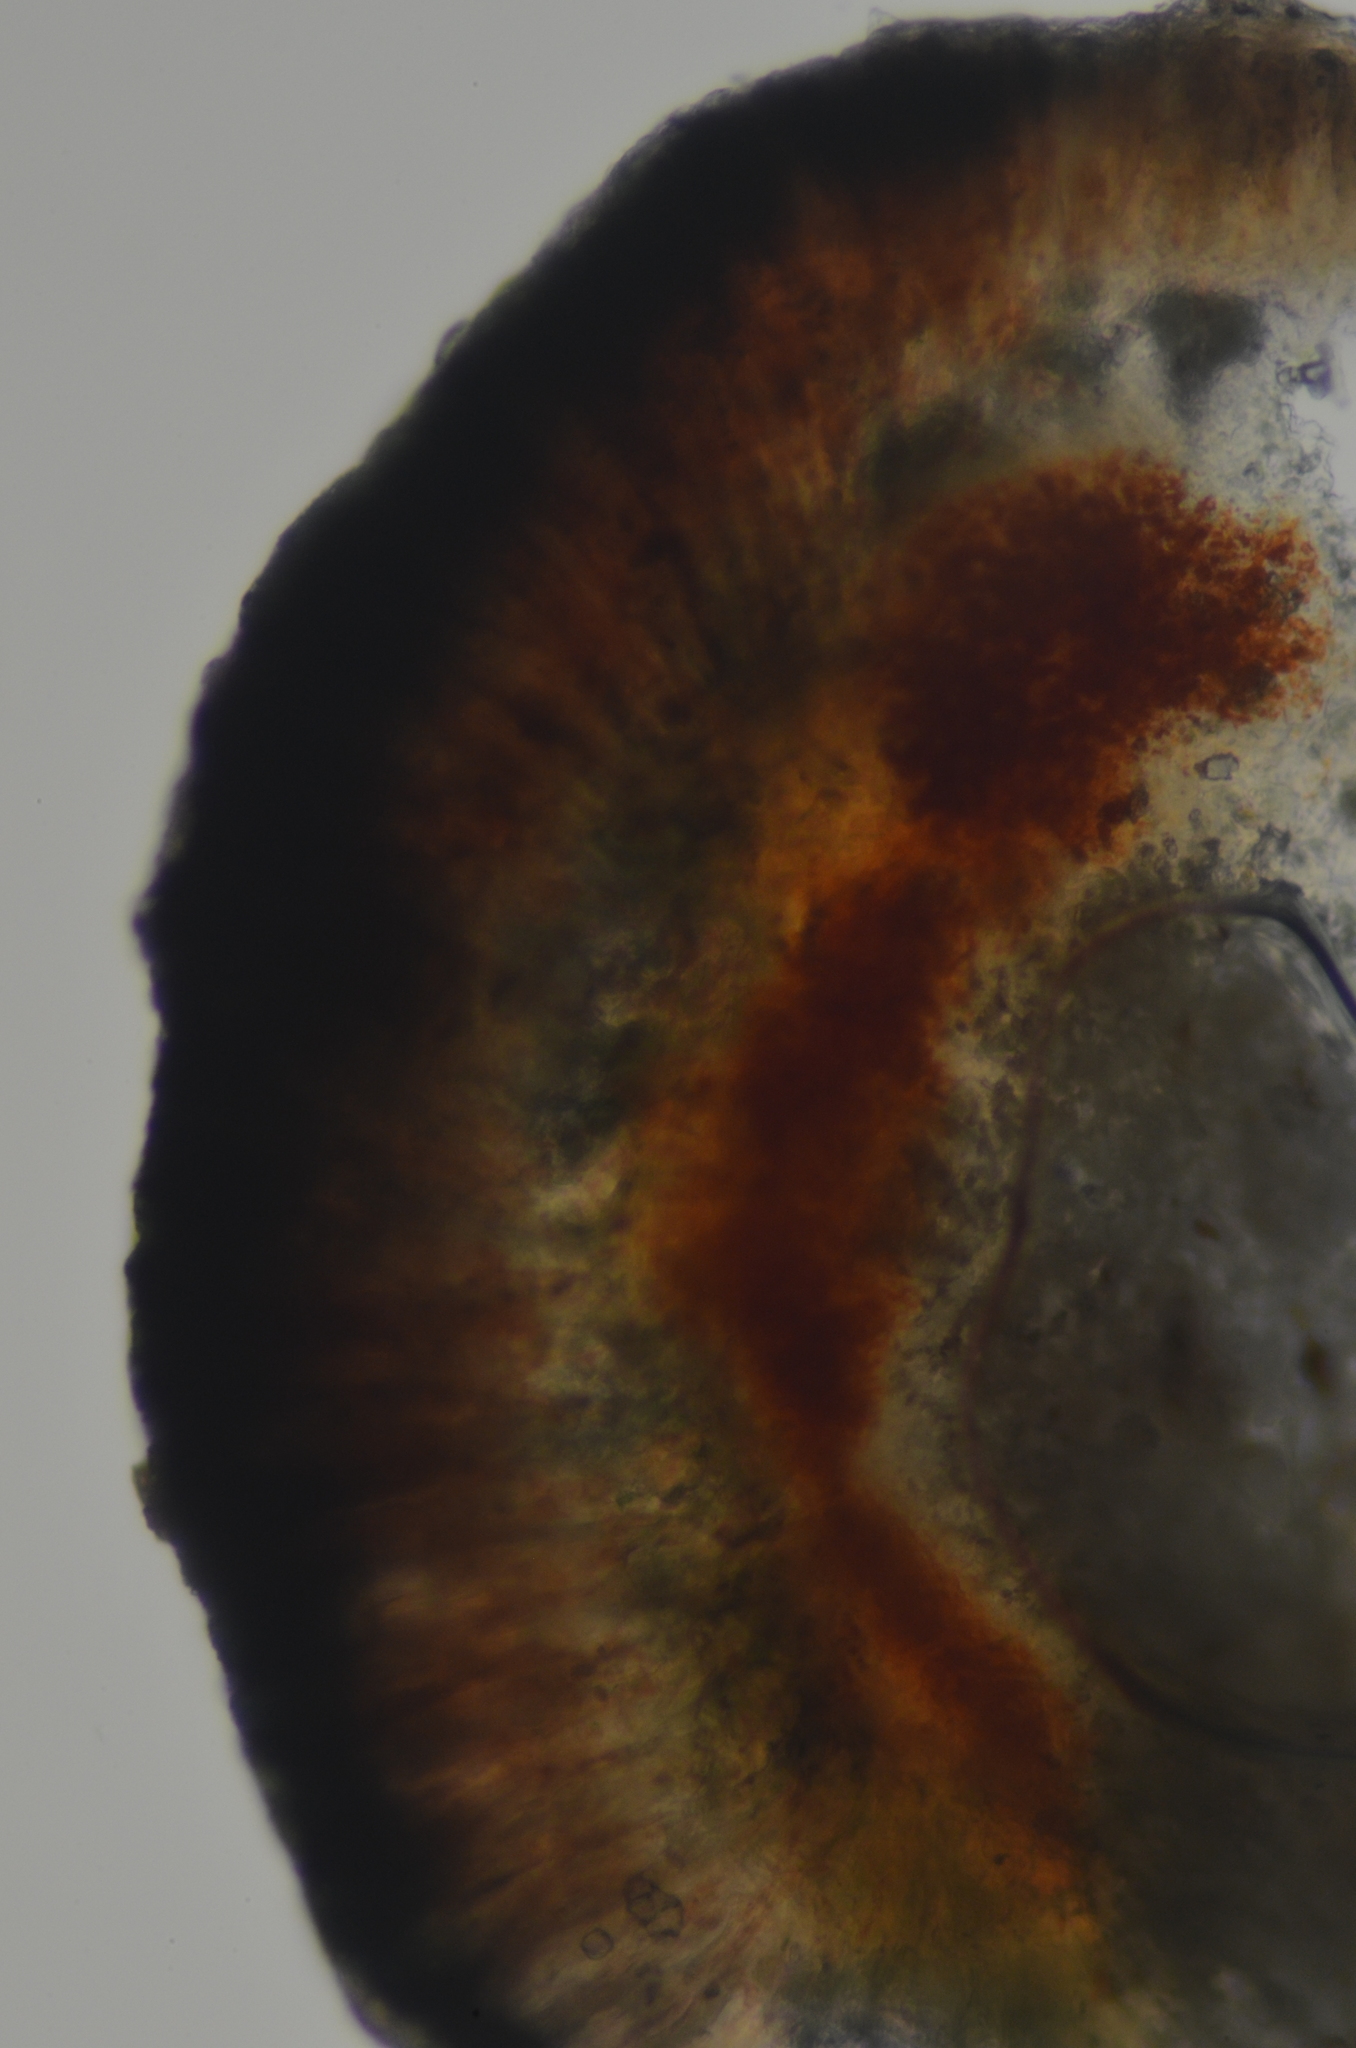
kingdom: Fungi
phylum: Ascomycota
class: Lecanoromycetes
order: Lecanorales
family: Tephromelataceae
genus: Mycoblastus
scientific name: Mycoblastus sanguinarius
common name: Bloody-heart lichen
